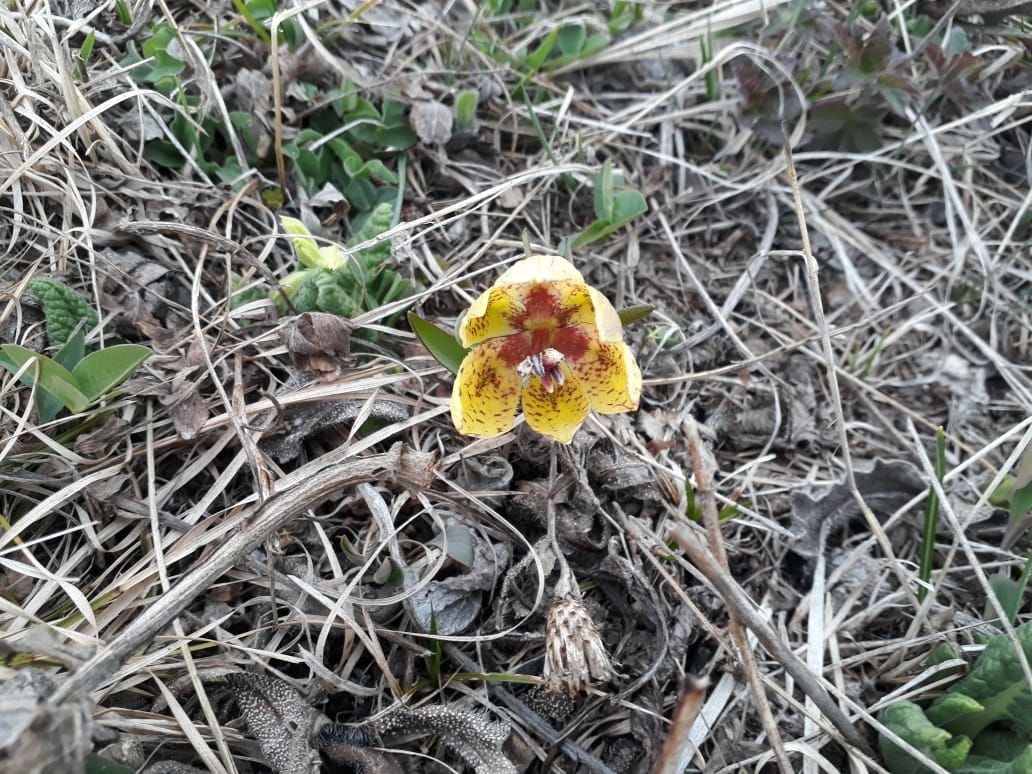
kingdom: Plantae
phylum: Tracheophyta
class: Liliopsida
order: Liliales
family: Liliaceae
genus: Fritillaria
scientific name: Fritillaria collina
